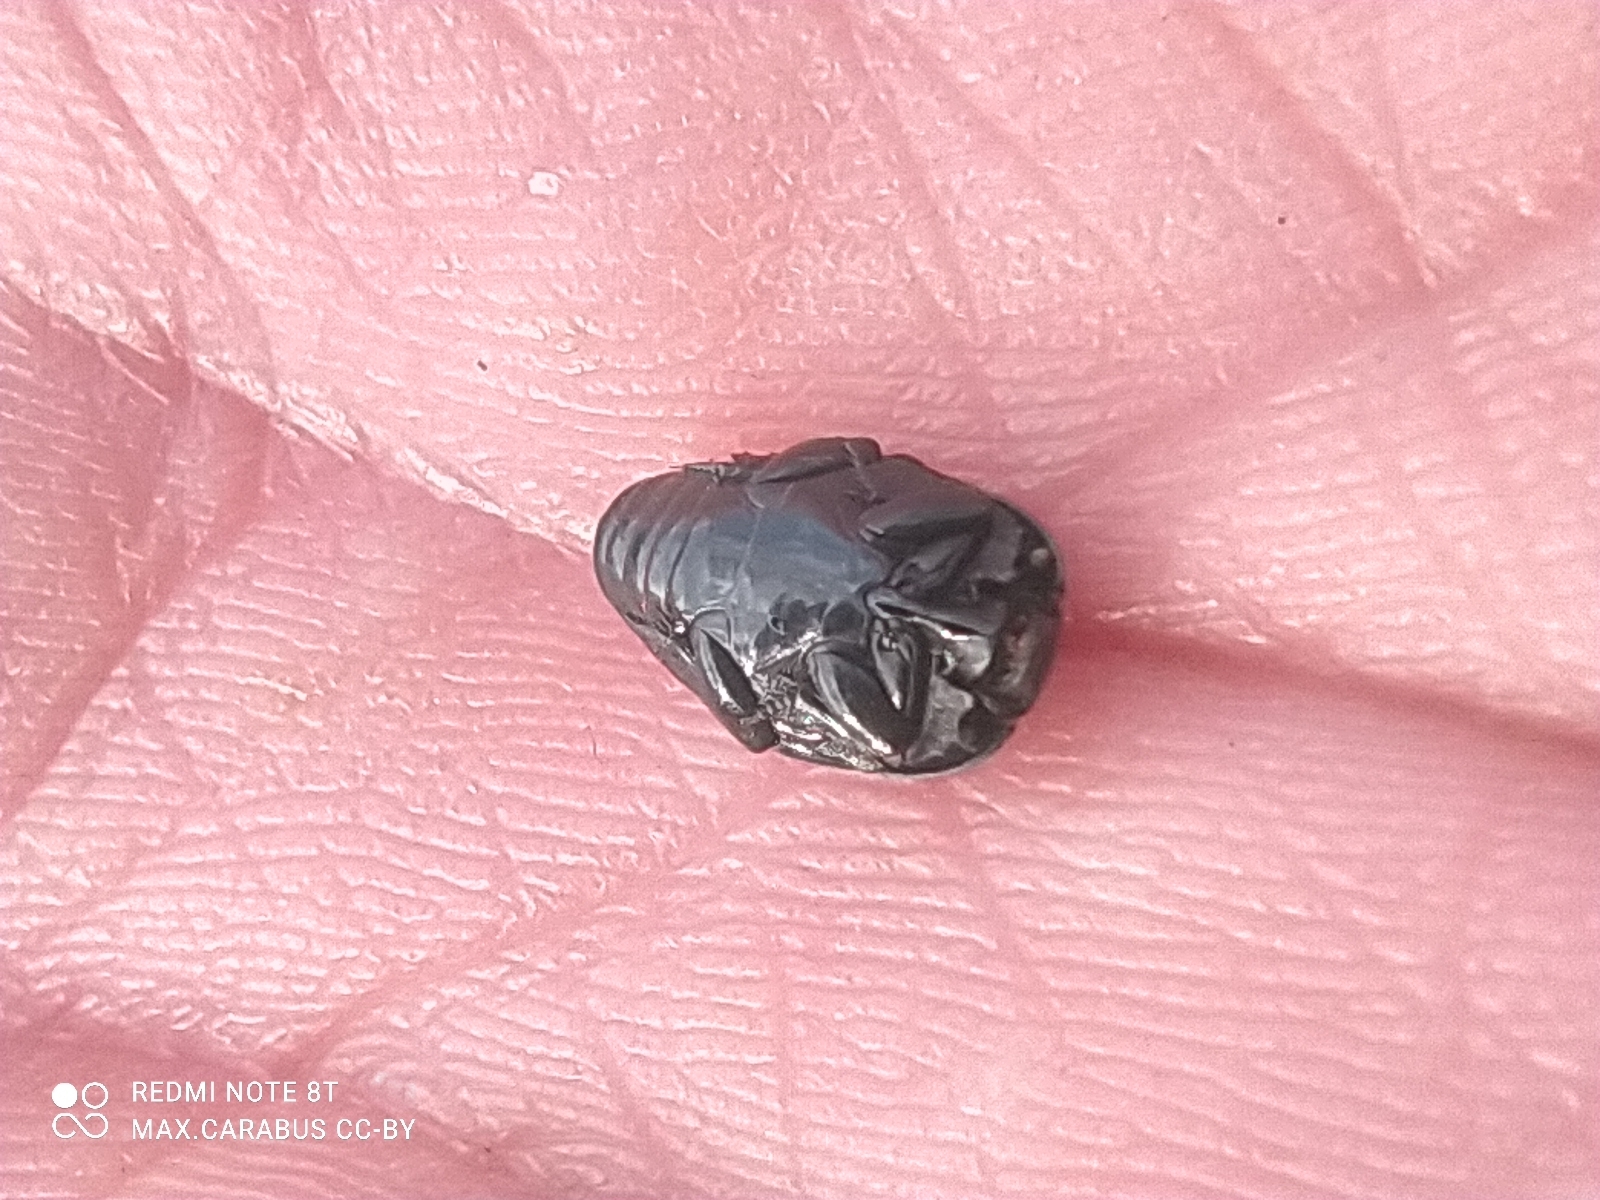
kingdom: Animalia
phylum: Arthropoda
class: Insecta
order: Coleoptera
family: Histeridae
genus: Margarinotus
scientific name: Margarinotus bipustulatus
